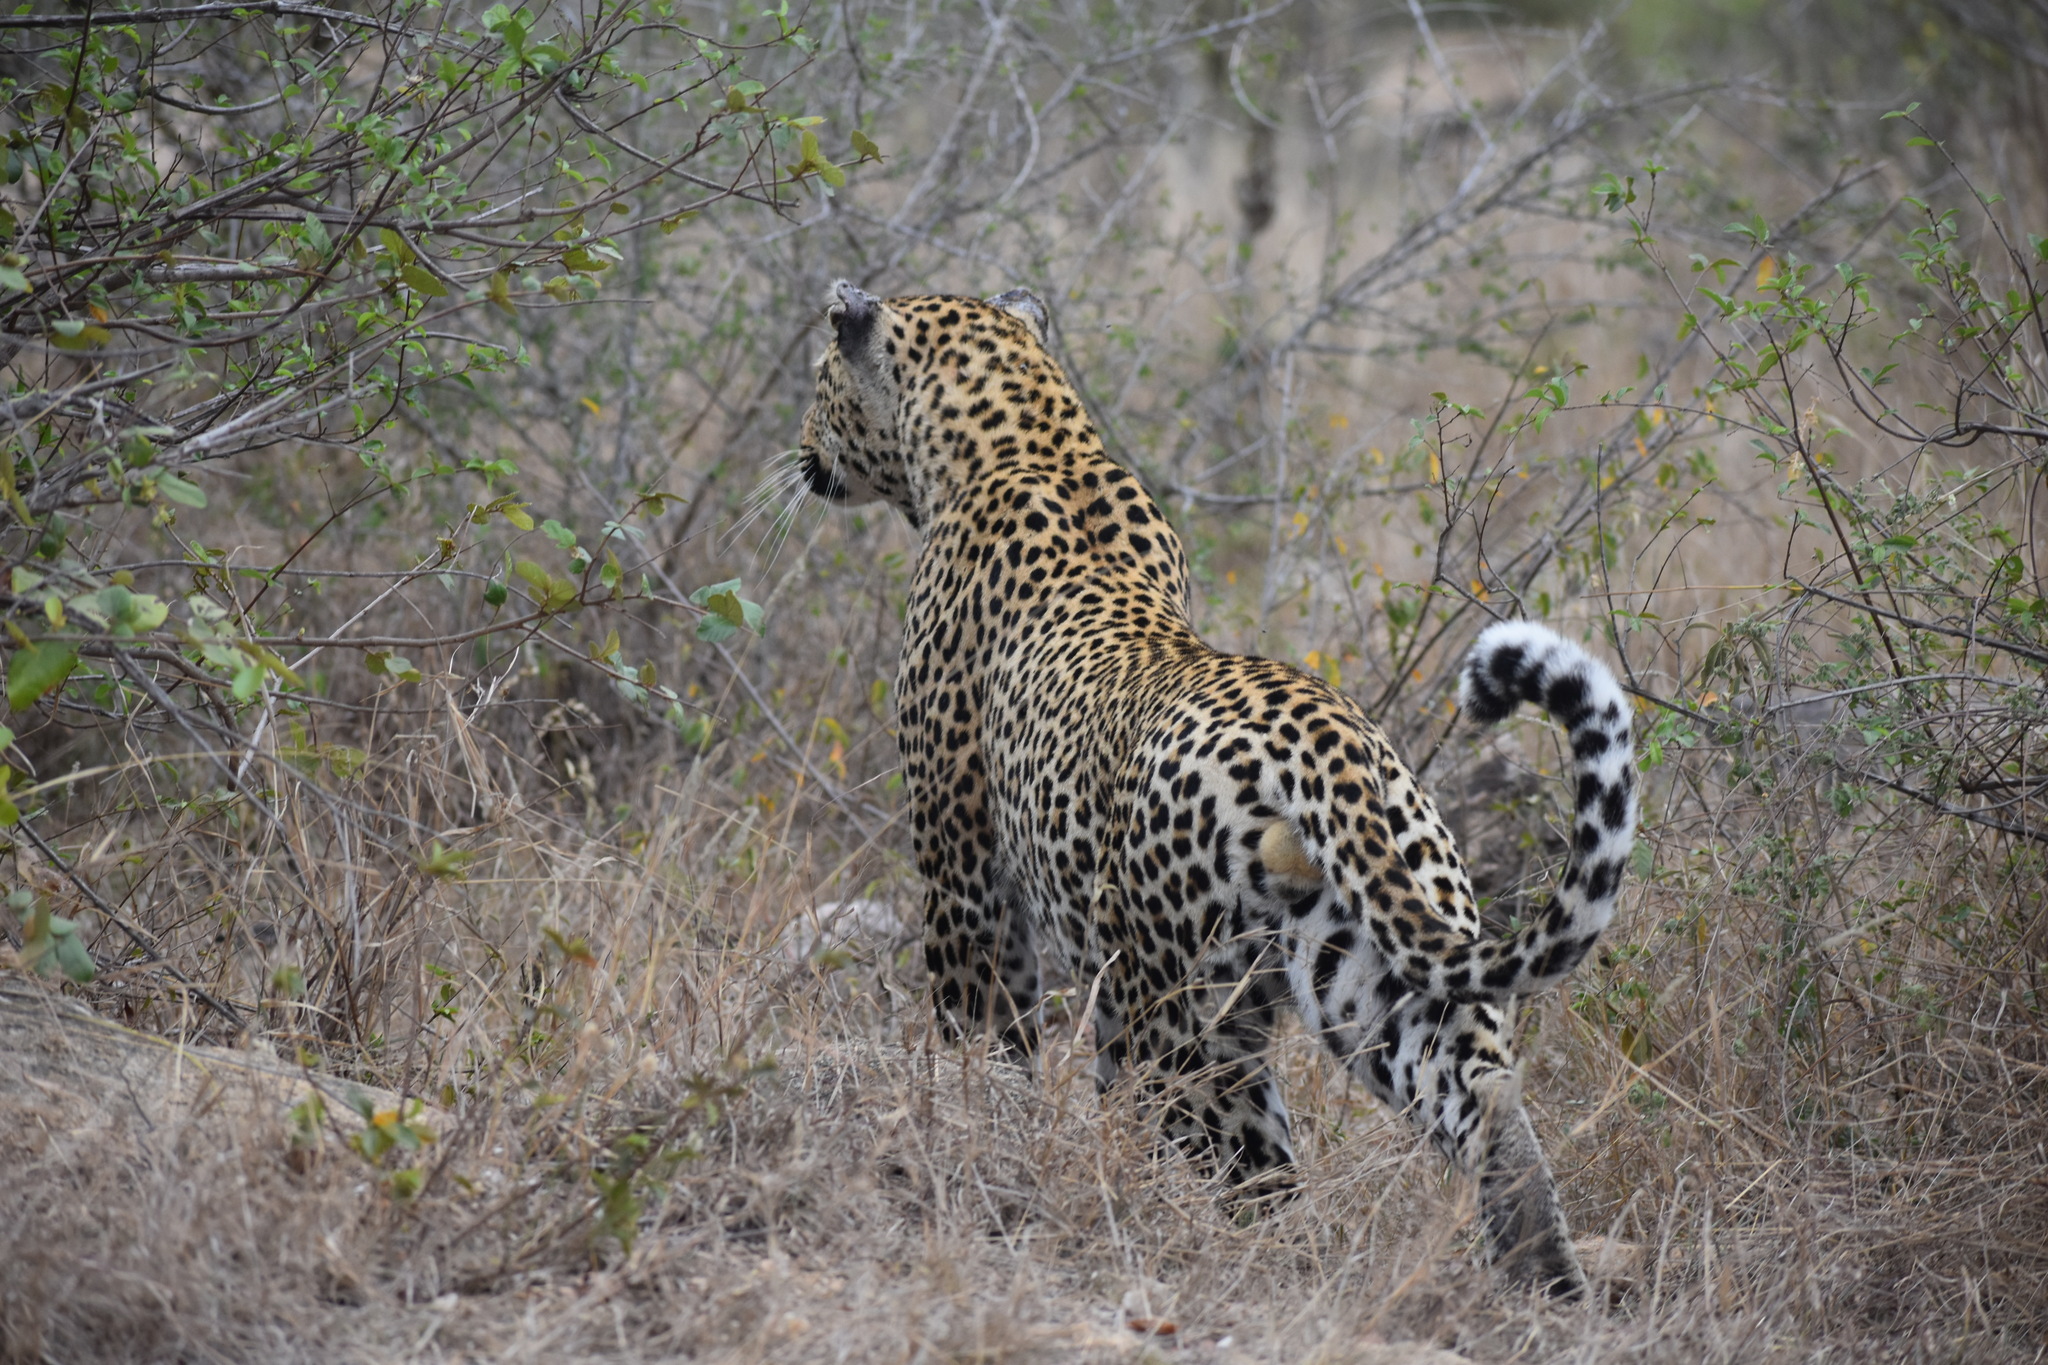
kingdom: Animalia
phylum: Chordata
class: Mammalia
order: Carnivora
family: Felidae
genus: Panthera
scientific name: Panthera pardus
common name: Leopard
